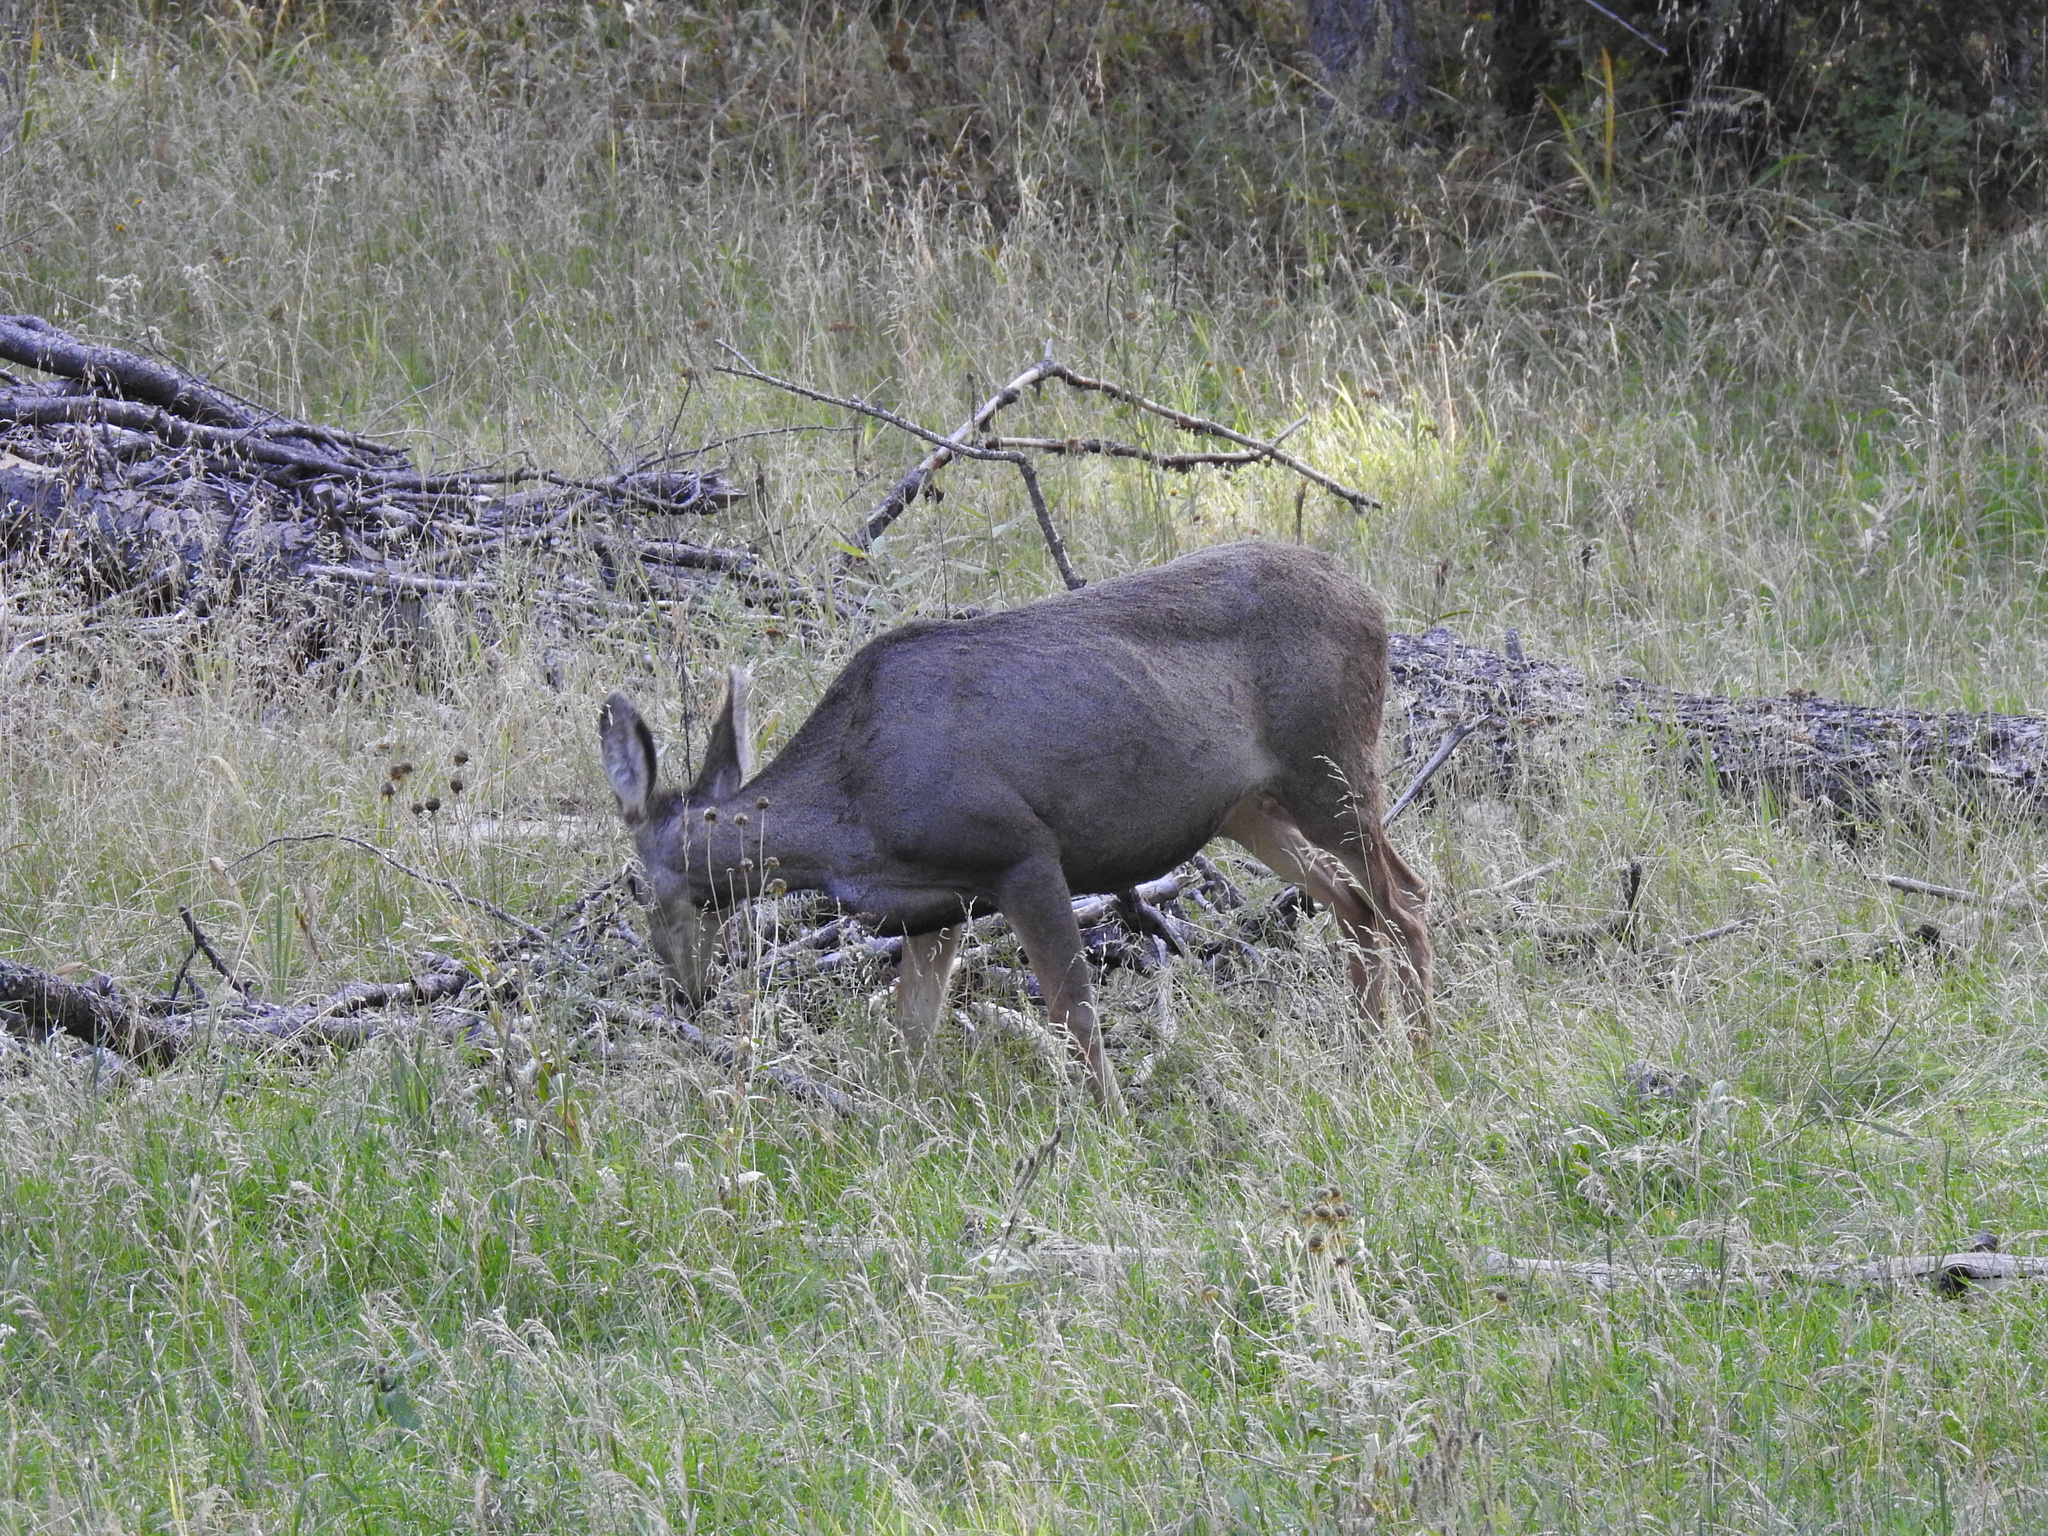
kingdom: Animalia
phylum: Chordata
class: Mammalia
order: Artiodactyla
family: Cervidae
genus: Odocoileus
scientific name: Odocoileus hemionus
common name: Mule deer
